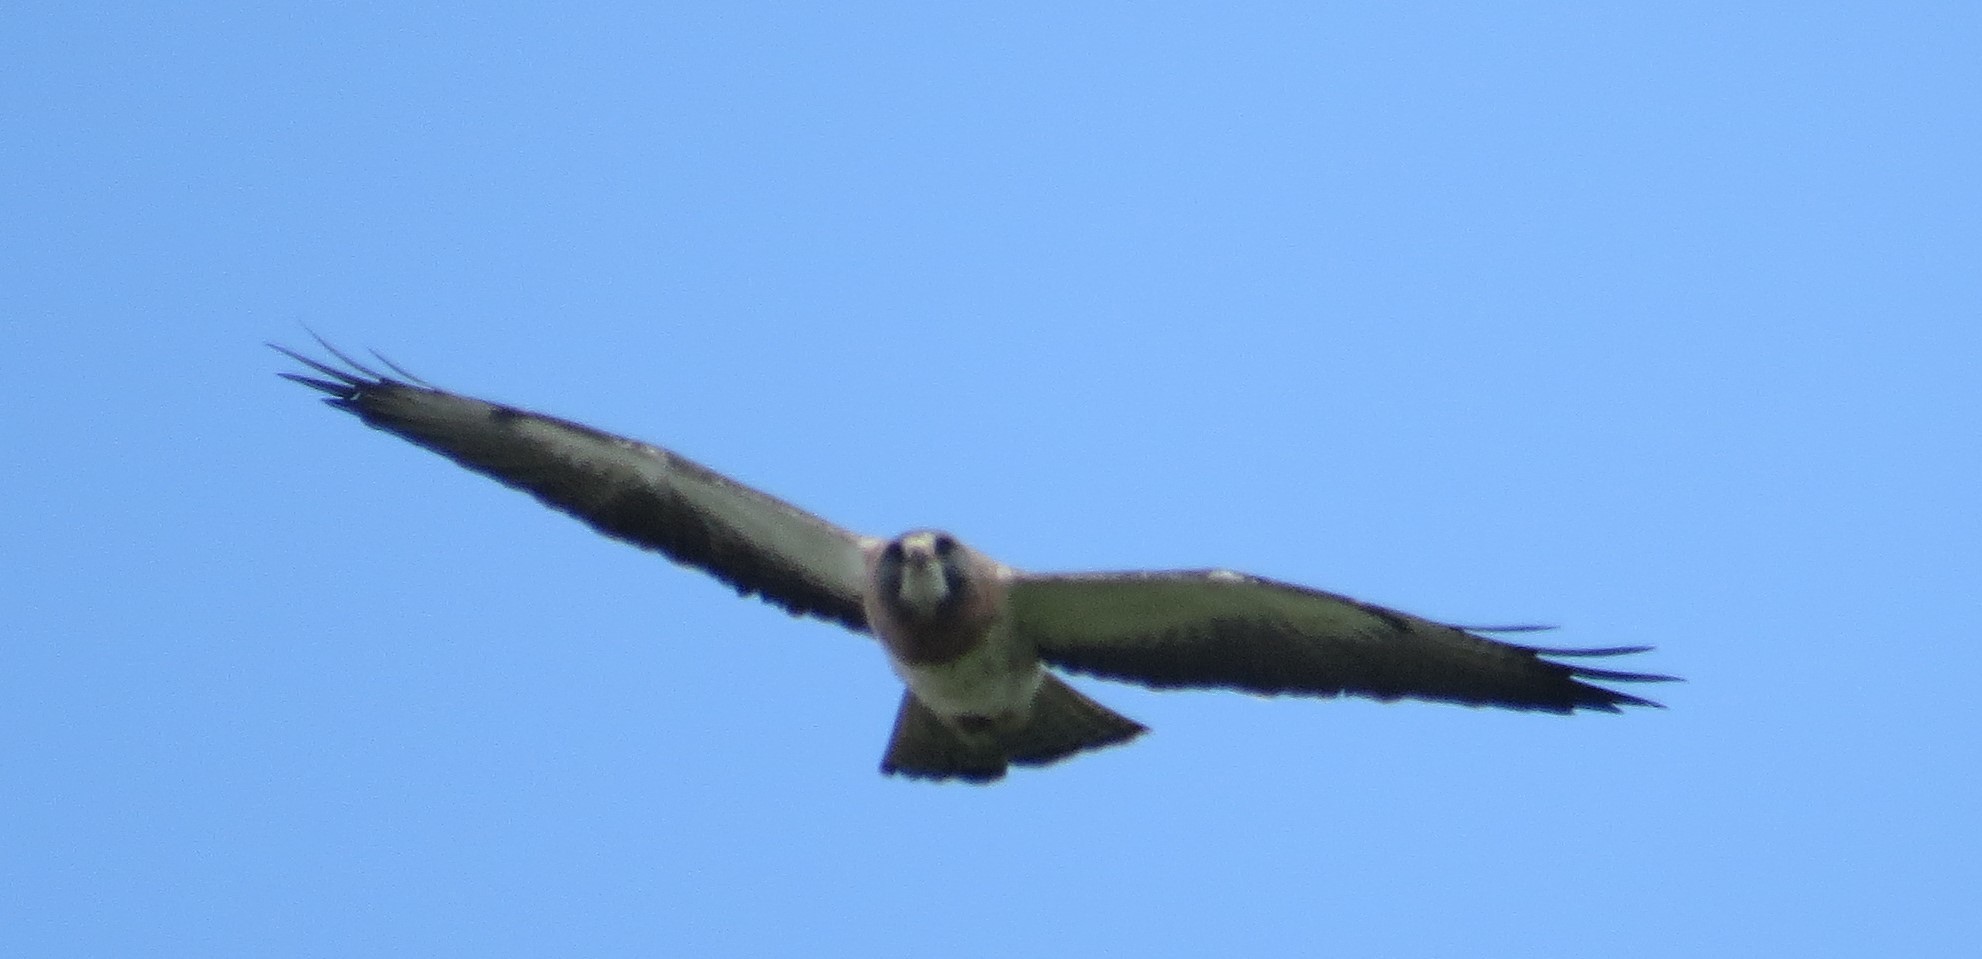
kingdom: Animalia
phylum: Chordata
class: Aves
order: Accipitriformes
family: Accipitridae
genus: Buteo
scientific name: Buteo swainsoni
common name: Swainson's hawk
